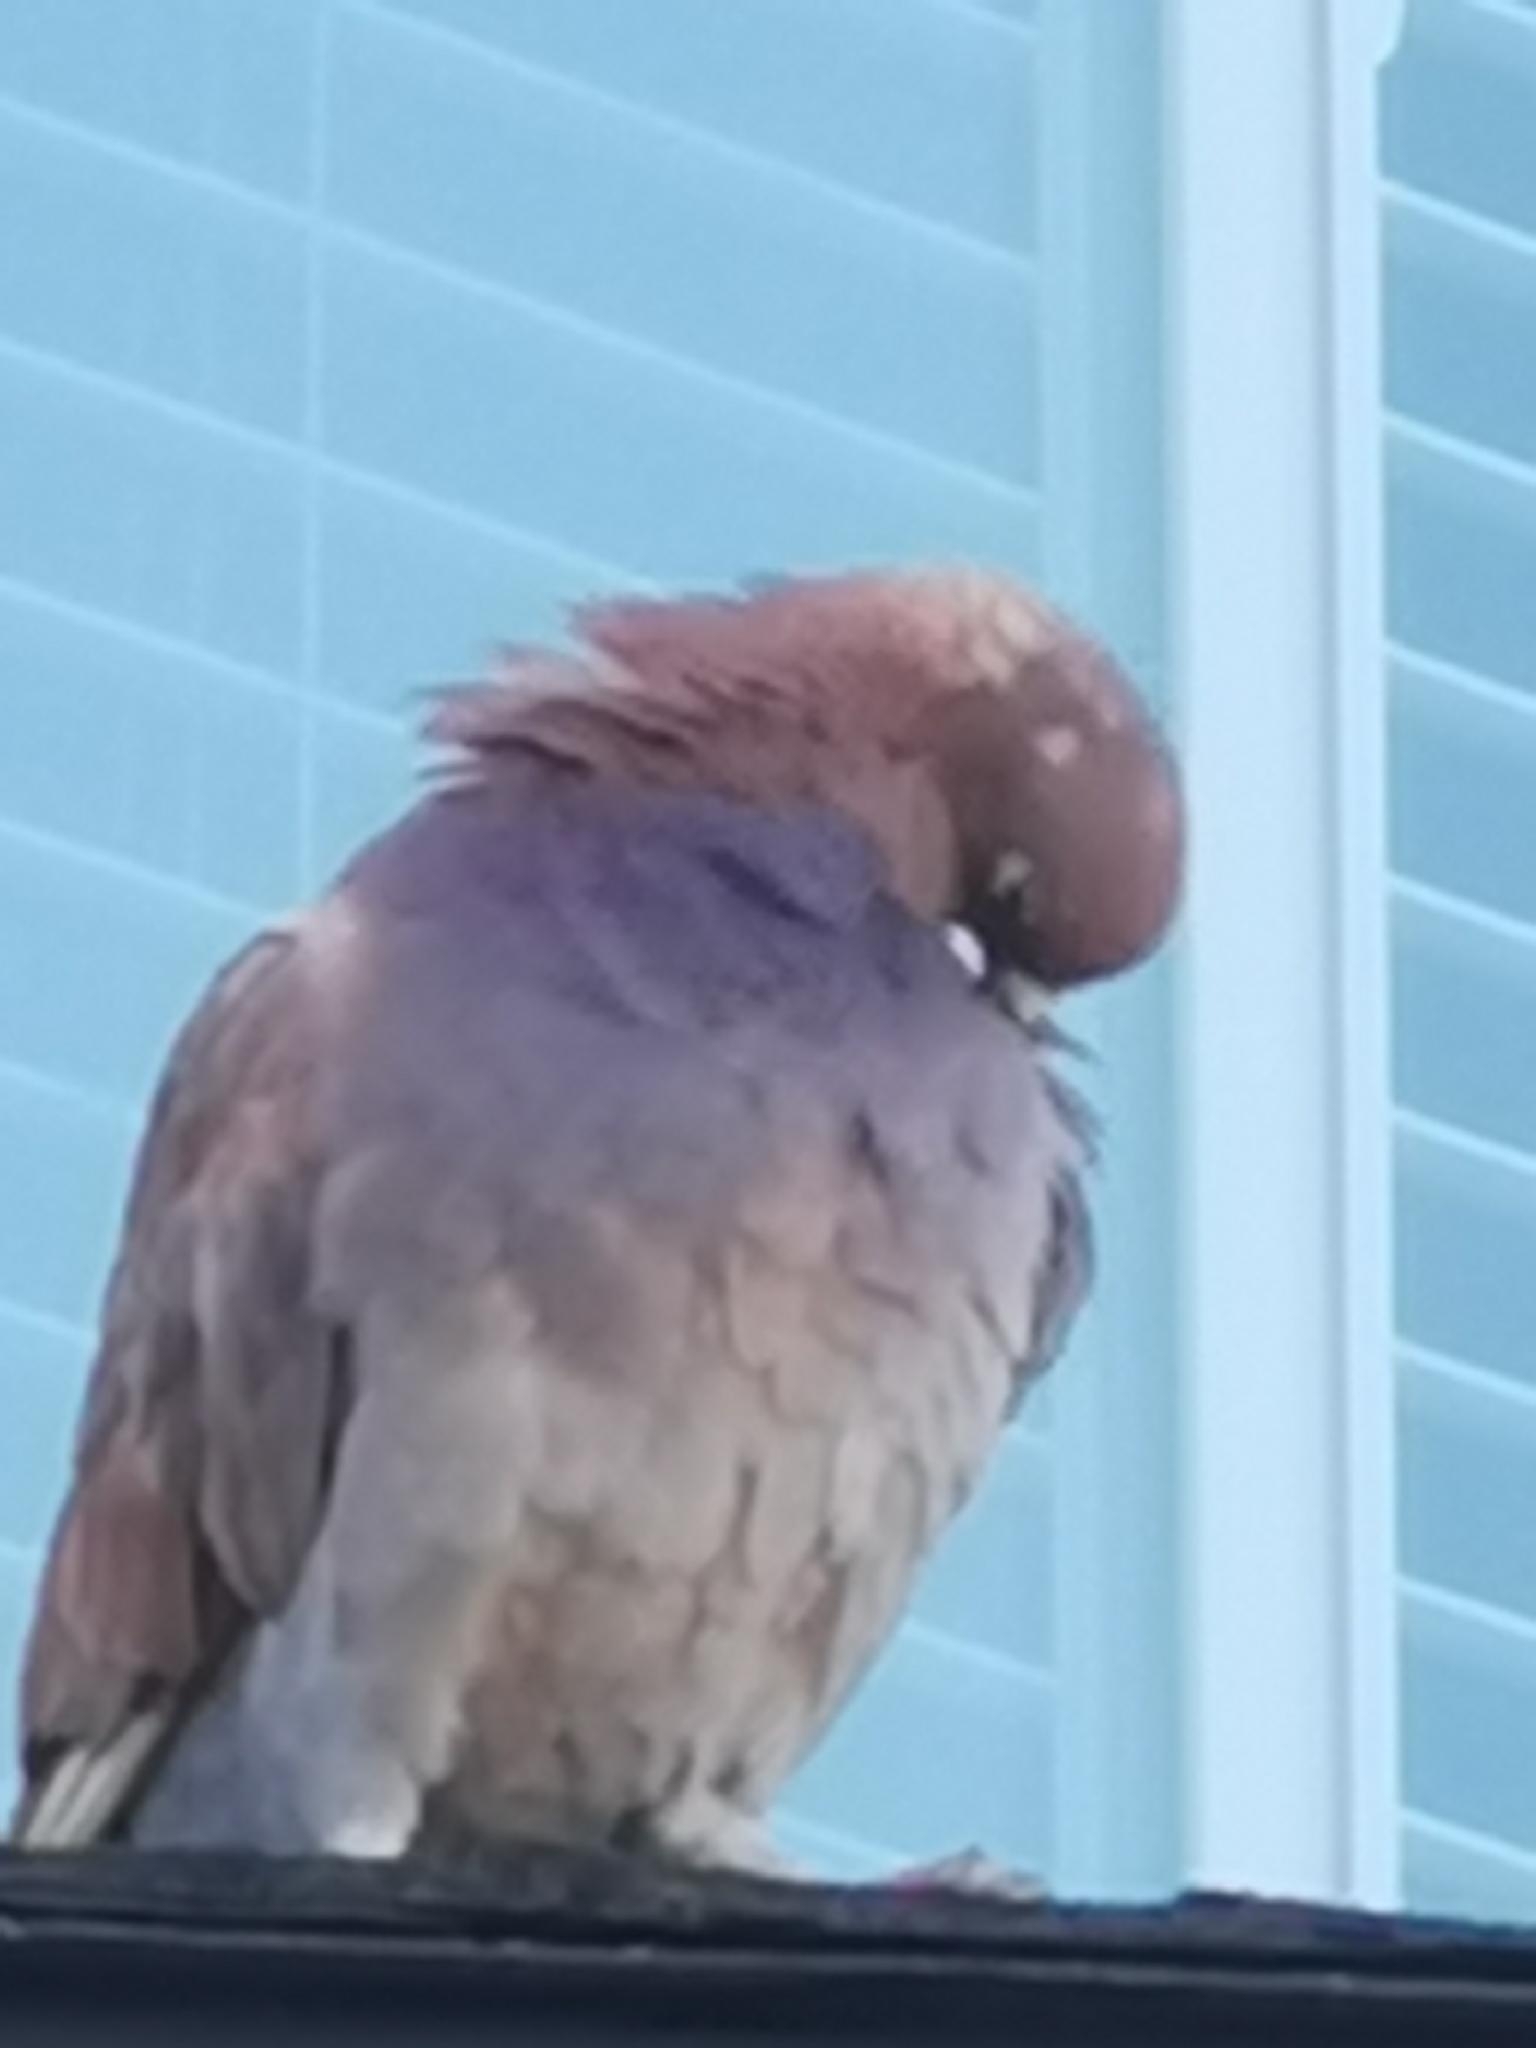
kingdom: Animalia
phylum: Chordata
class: Aves
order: Columbiformes
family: Columbidae
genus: Columba
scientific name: Columba livia
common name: Rock pigeon
